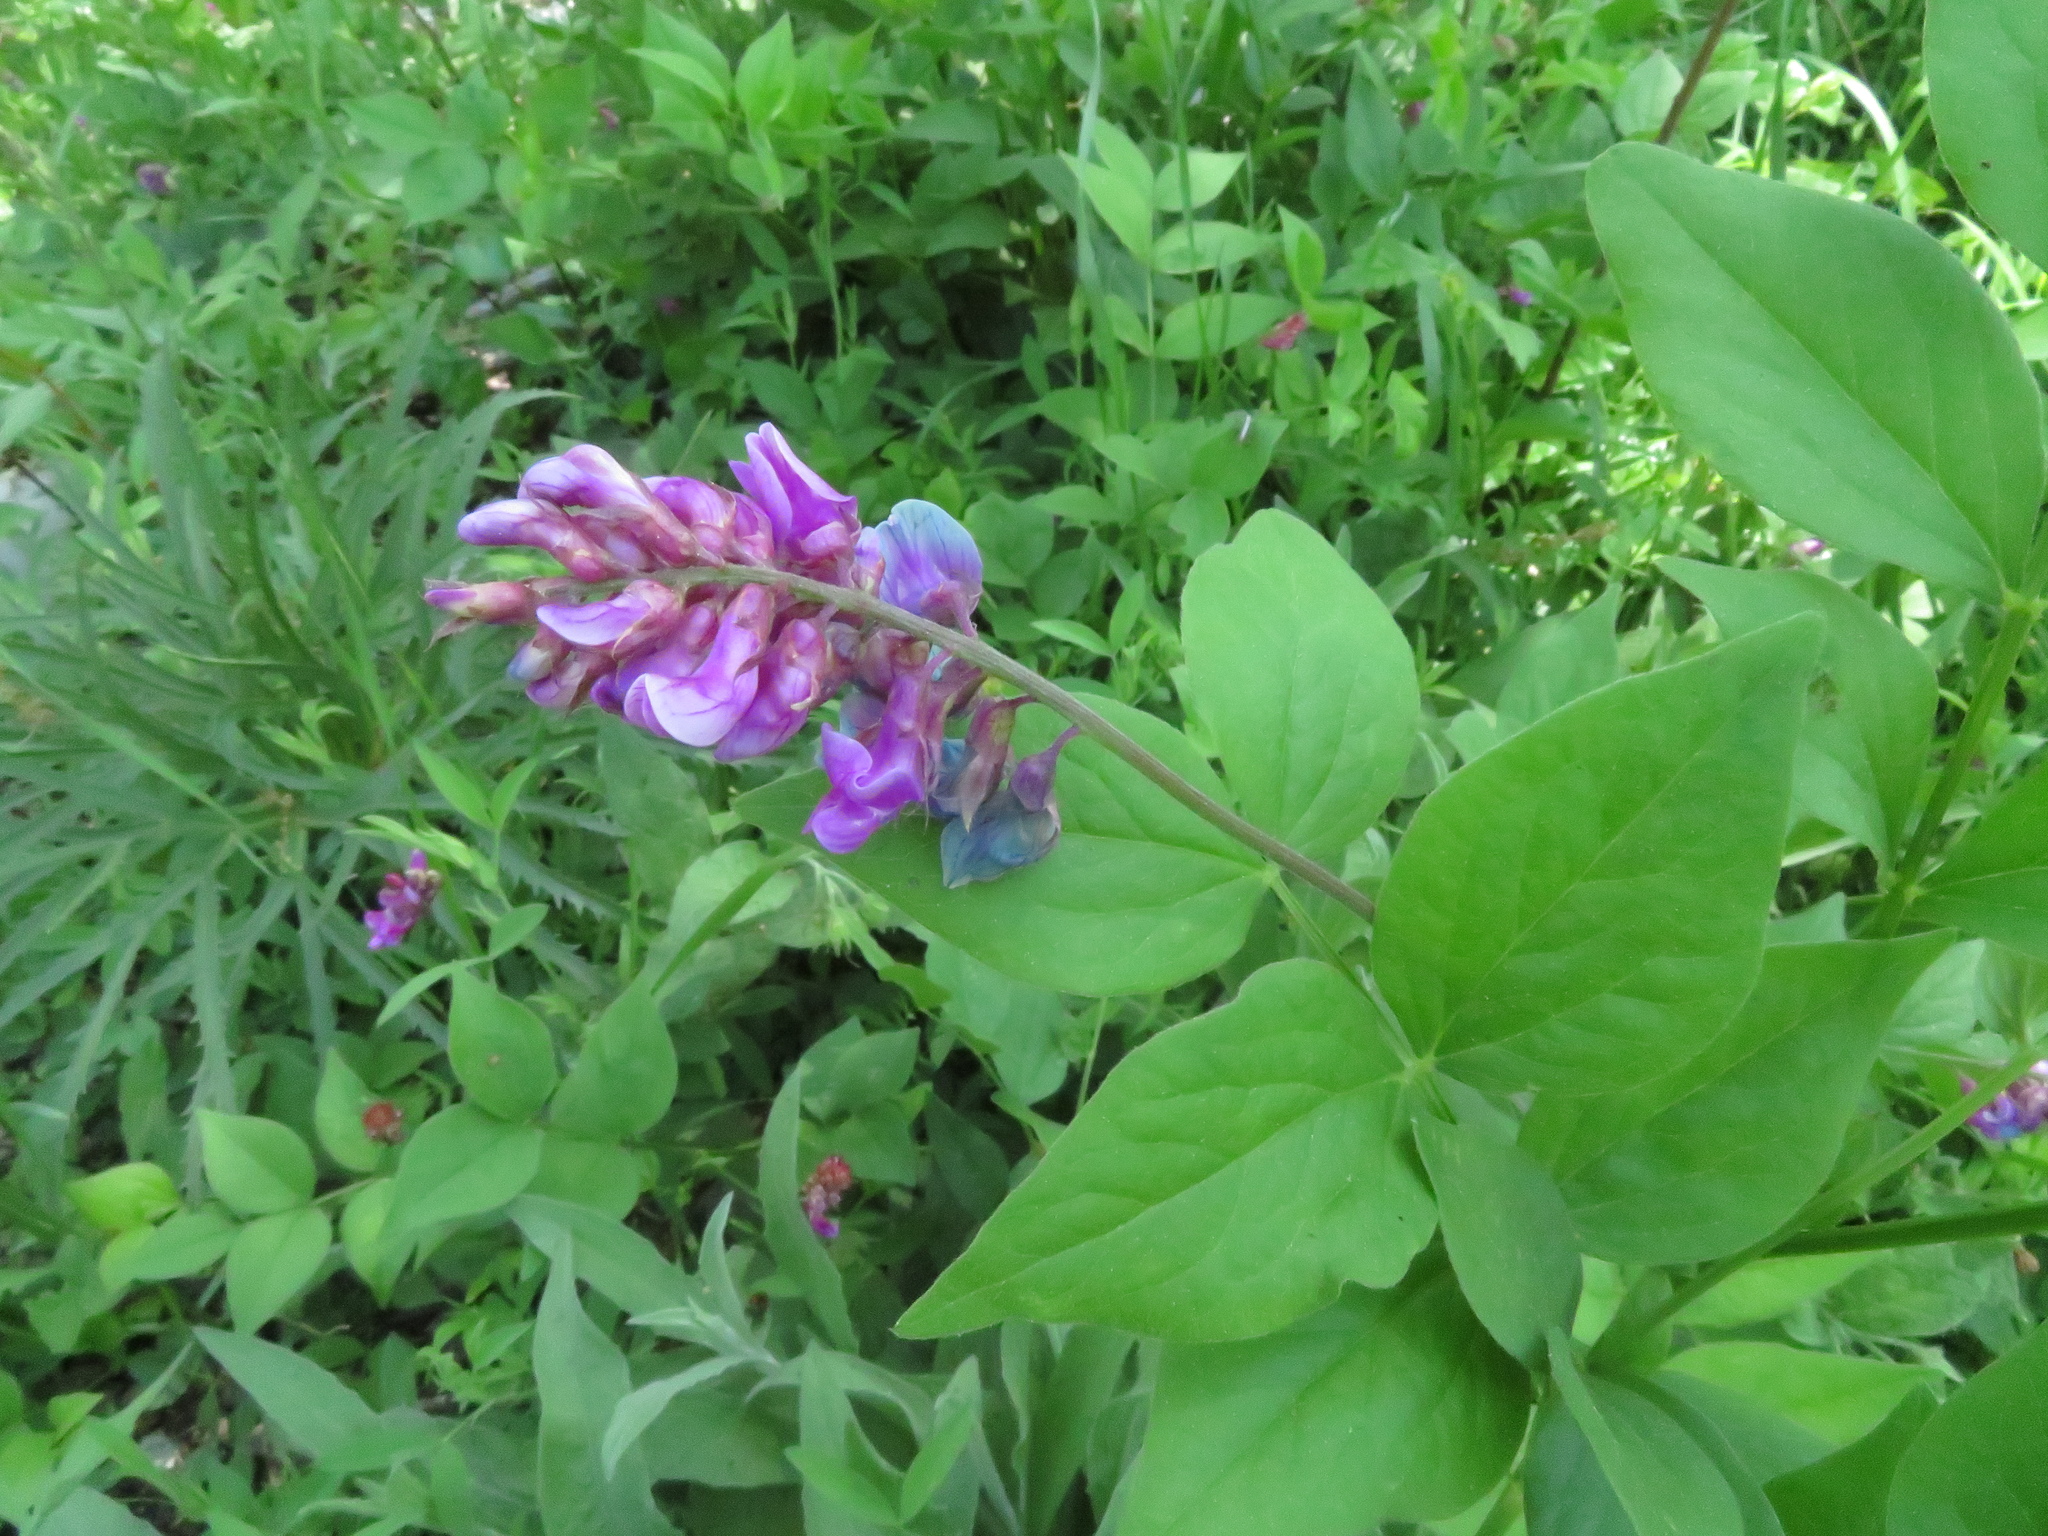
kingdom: Plantae
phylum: Tracheophyta
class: Magnoliopsida
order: Fabales
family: Fabaceae
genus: Lathyrus
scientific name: Lathyrus venetus
